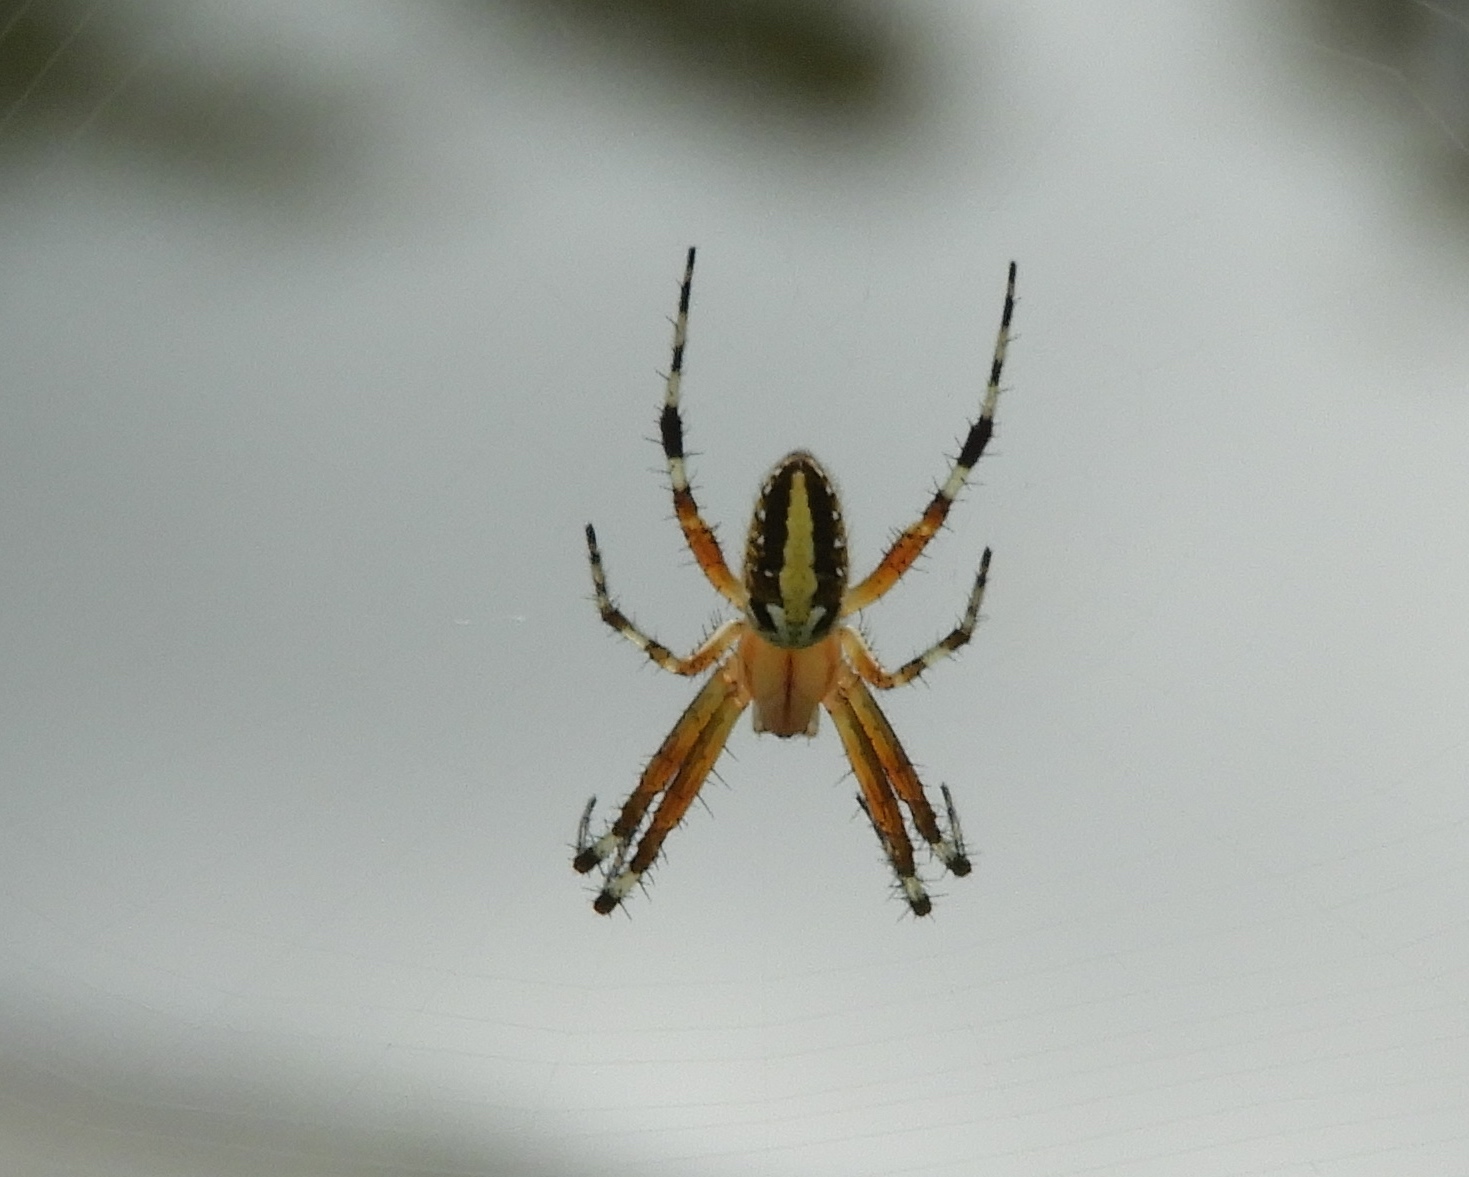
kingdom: Animalia
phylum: Arthropoda
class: Arachnida
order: Araneae
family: Araneidae
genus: Neoscona
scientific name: Neoscona oaxacensis
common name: Orb weavers
